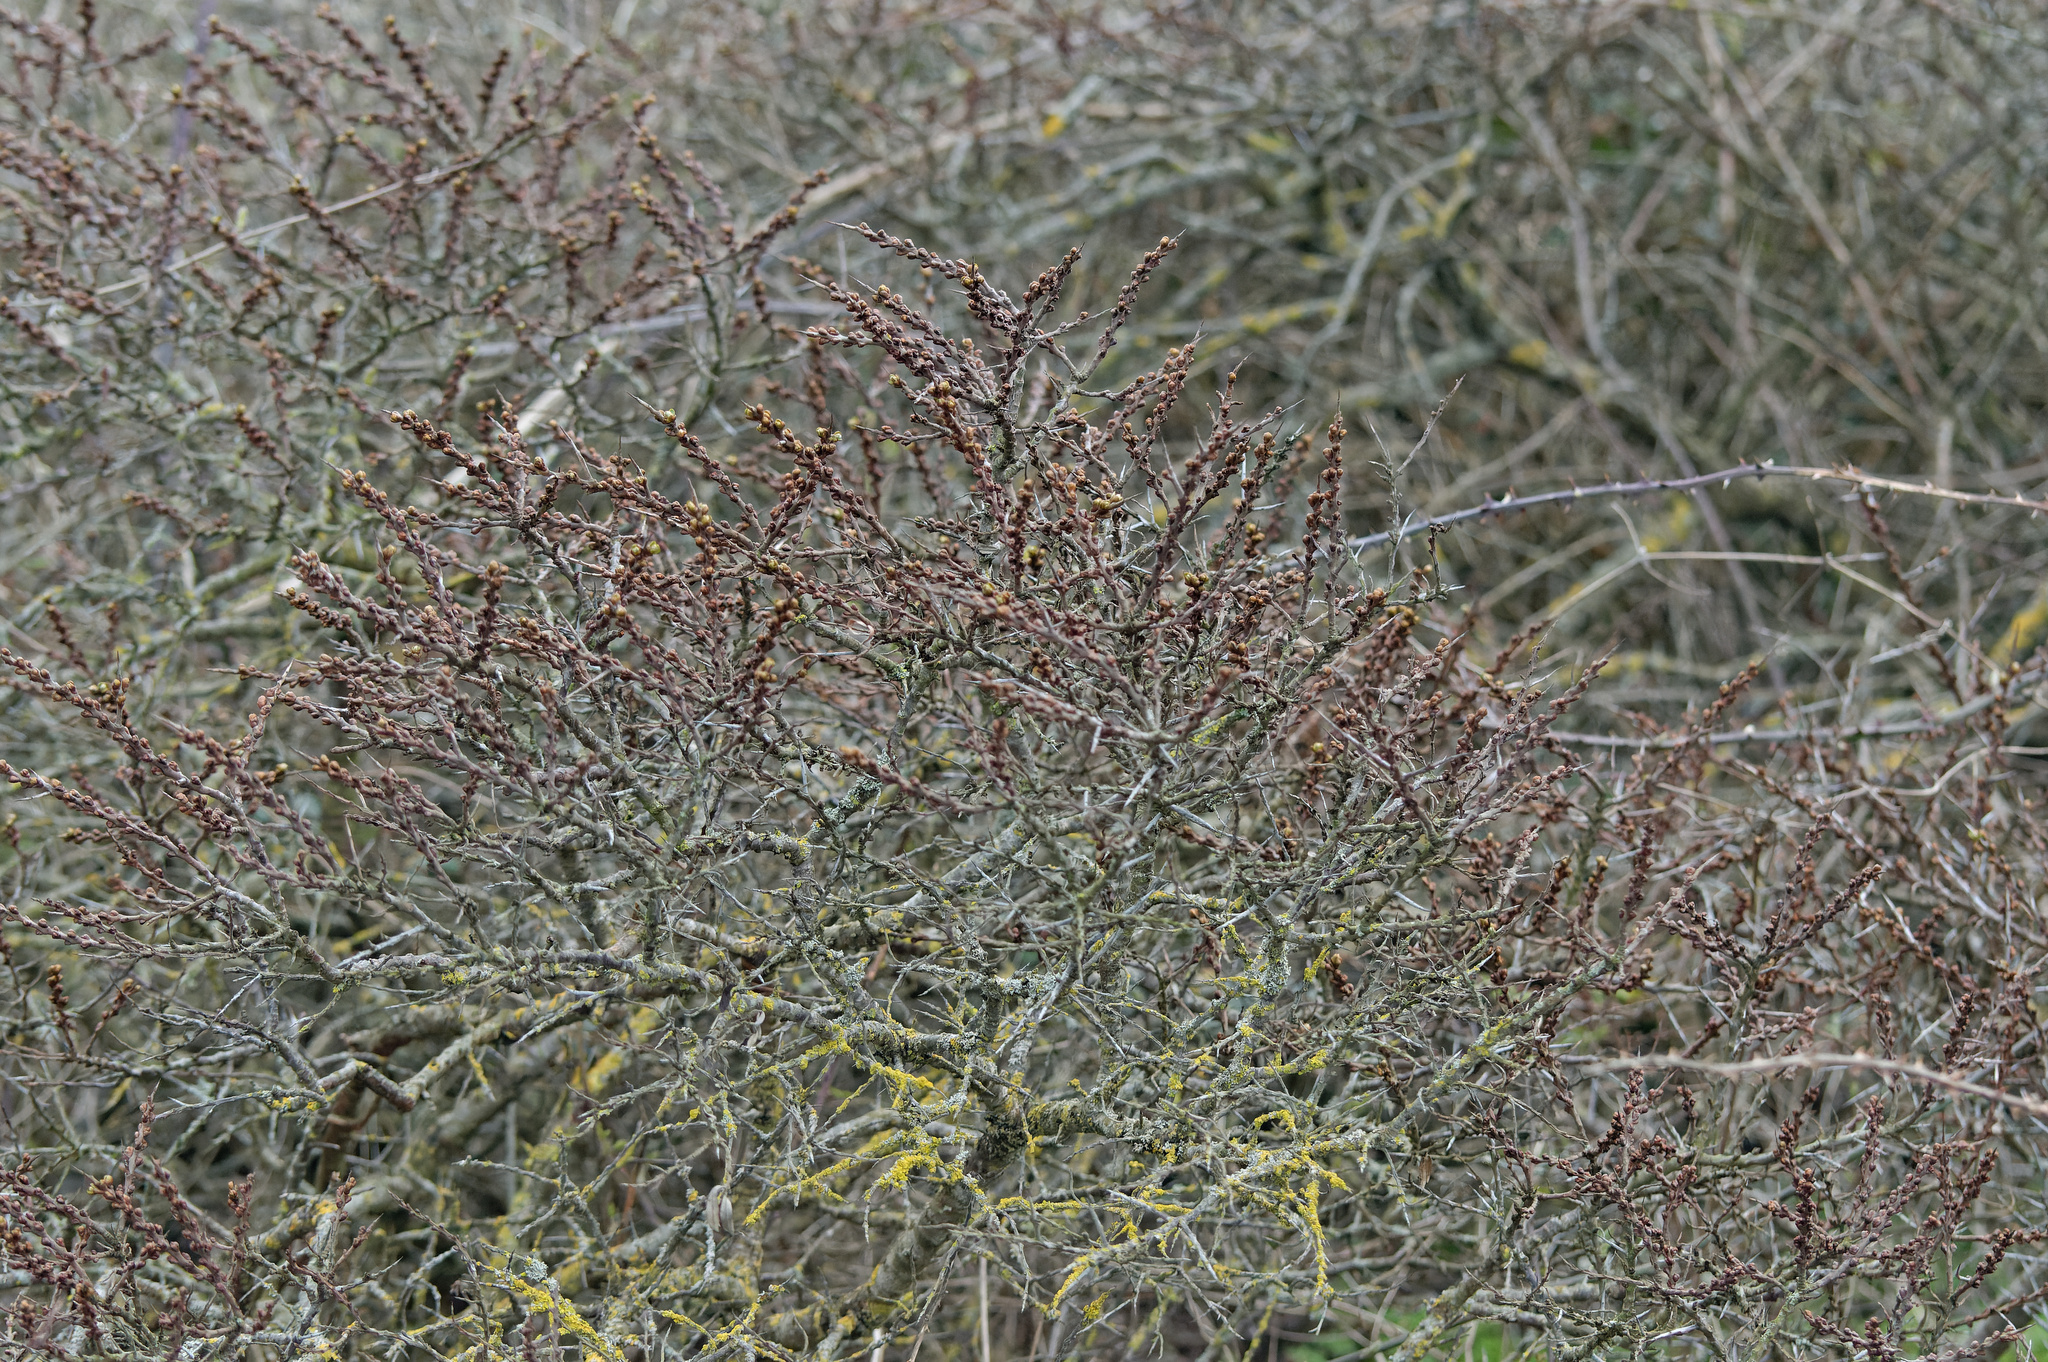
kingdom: Plantae
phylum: Tracheophyta
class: Magnoliopsida
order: Rosales
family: Elaeagnaceae
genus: Hippophae
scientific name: Hippophae rhamnoides
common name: Sea-buckthorn
